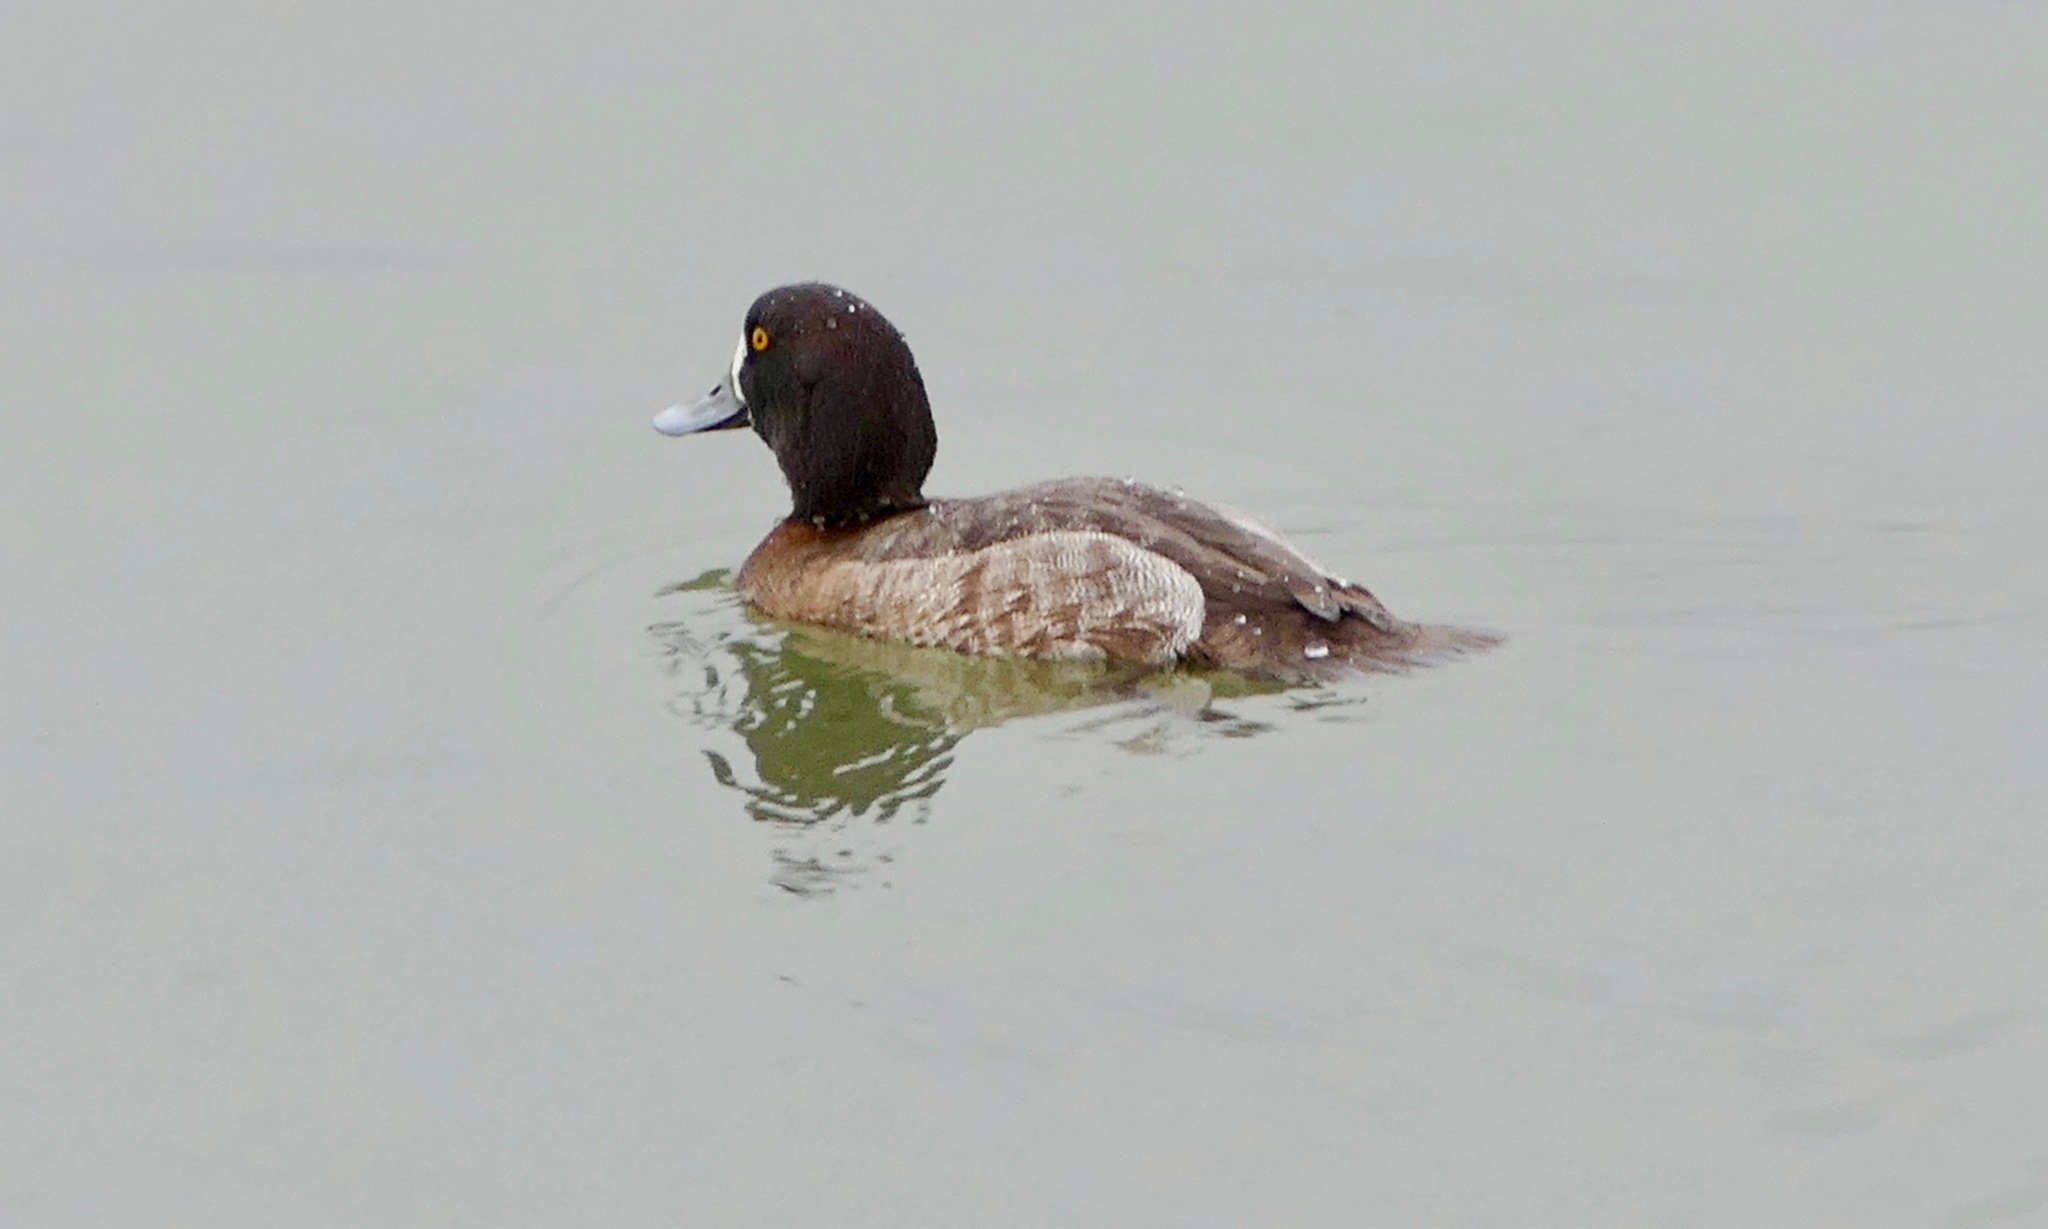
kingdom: Animalia
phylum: Chordata
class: Aves
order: Anseriformes
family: Anatidae
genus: Aythya
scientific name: Aythya affinis
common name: Lesser scaup
